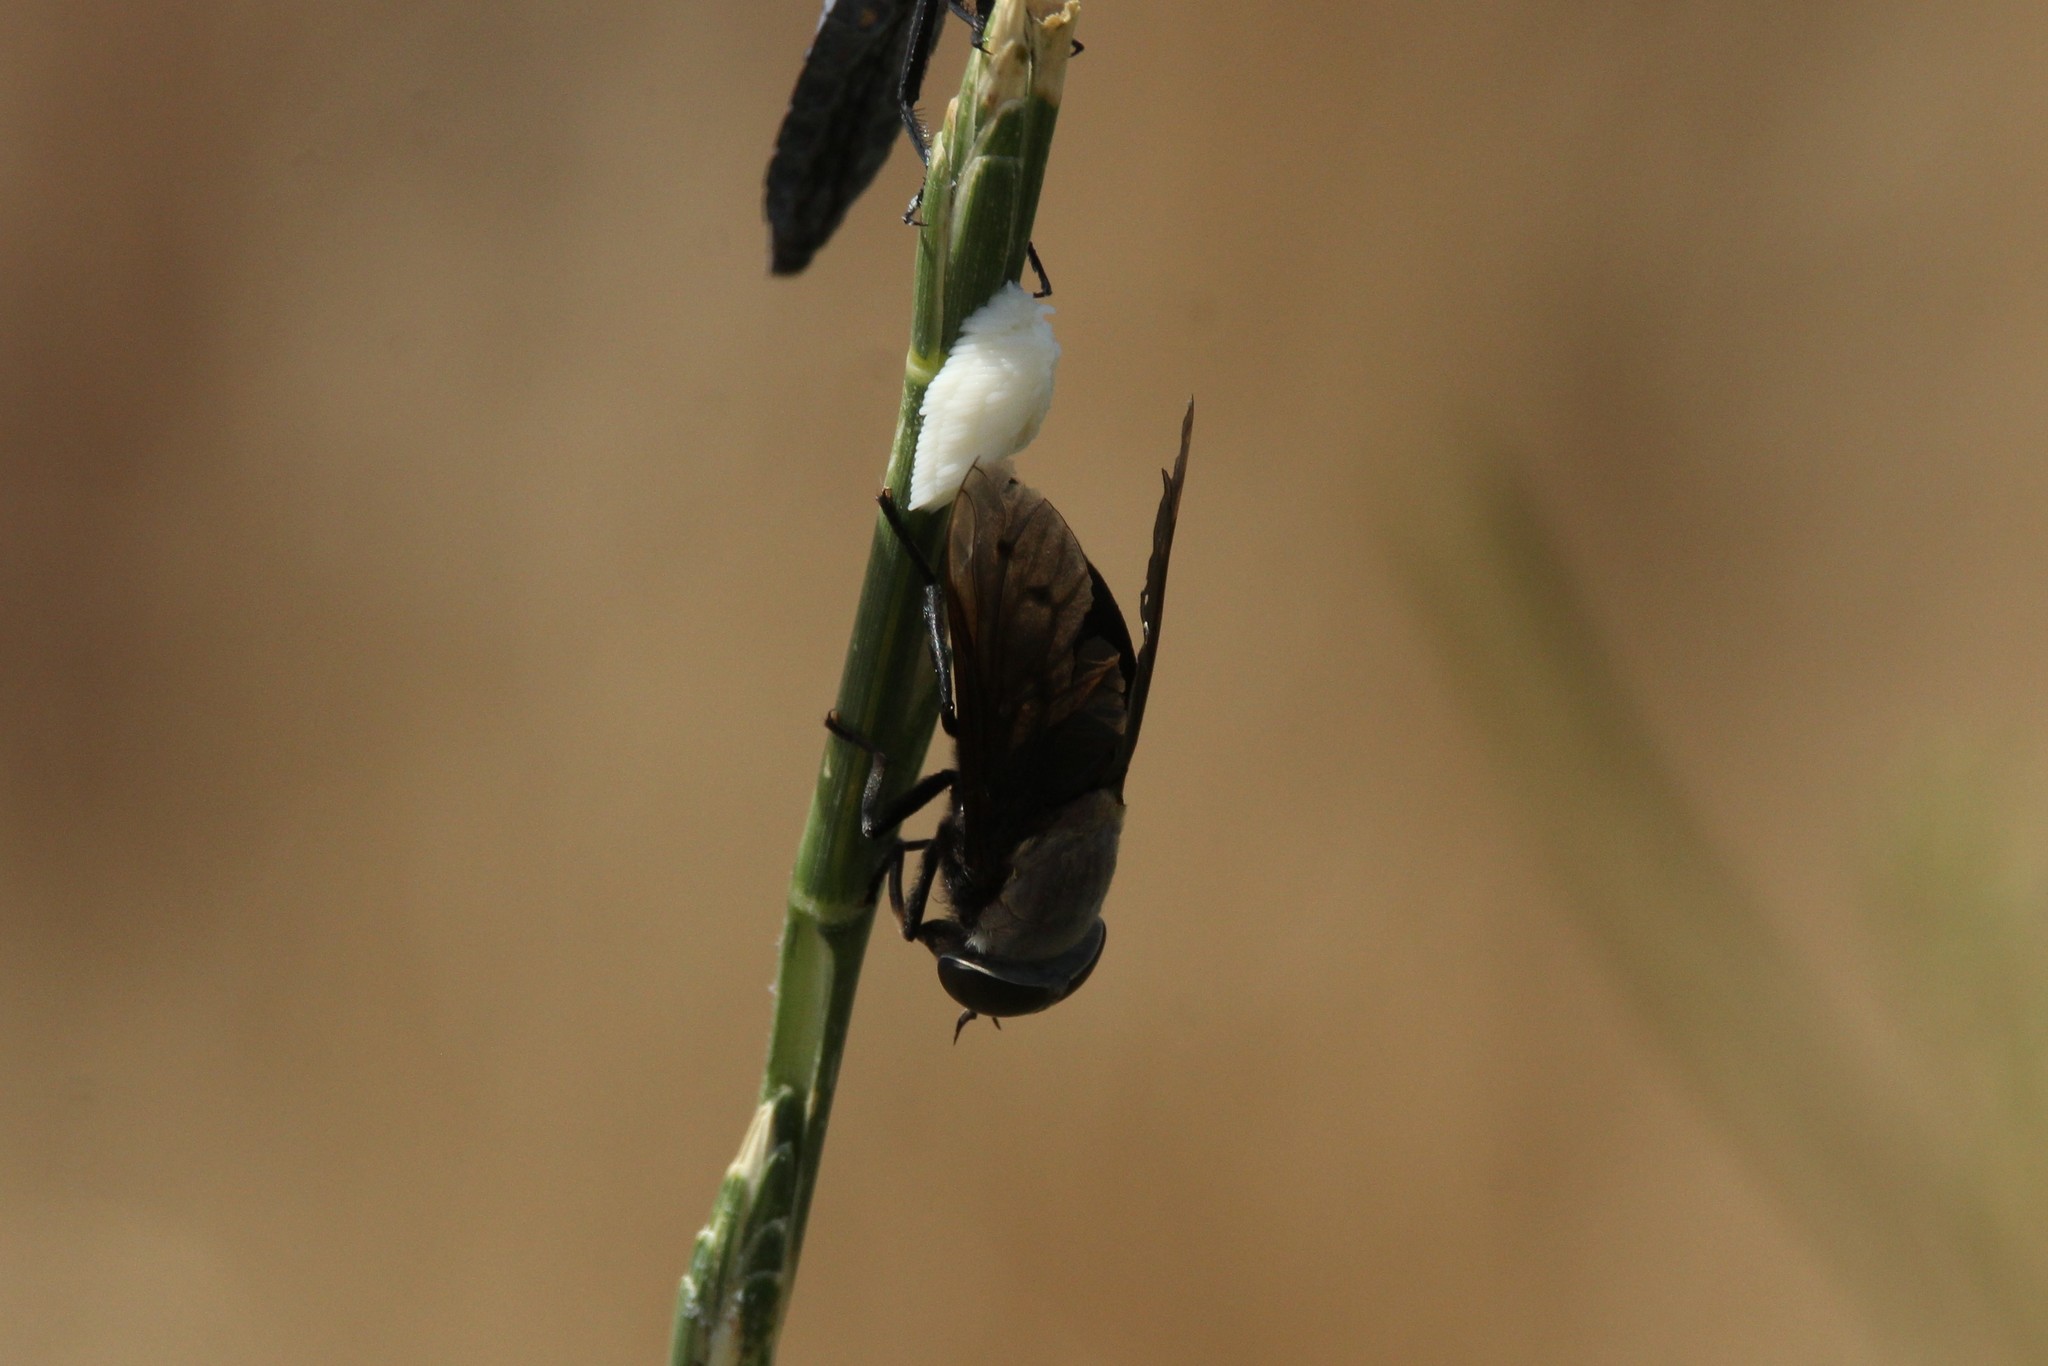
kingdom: Animalia
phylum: Arthropoda
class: Insecta
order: Diptera
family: Tabanidae
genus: Tabanus
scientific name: Tabanus punctifer
